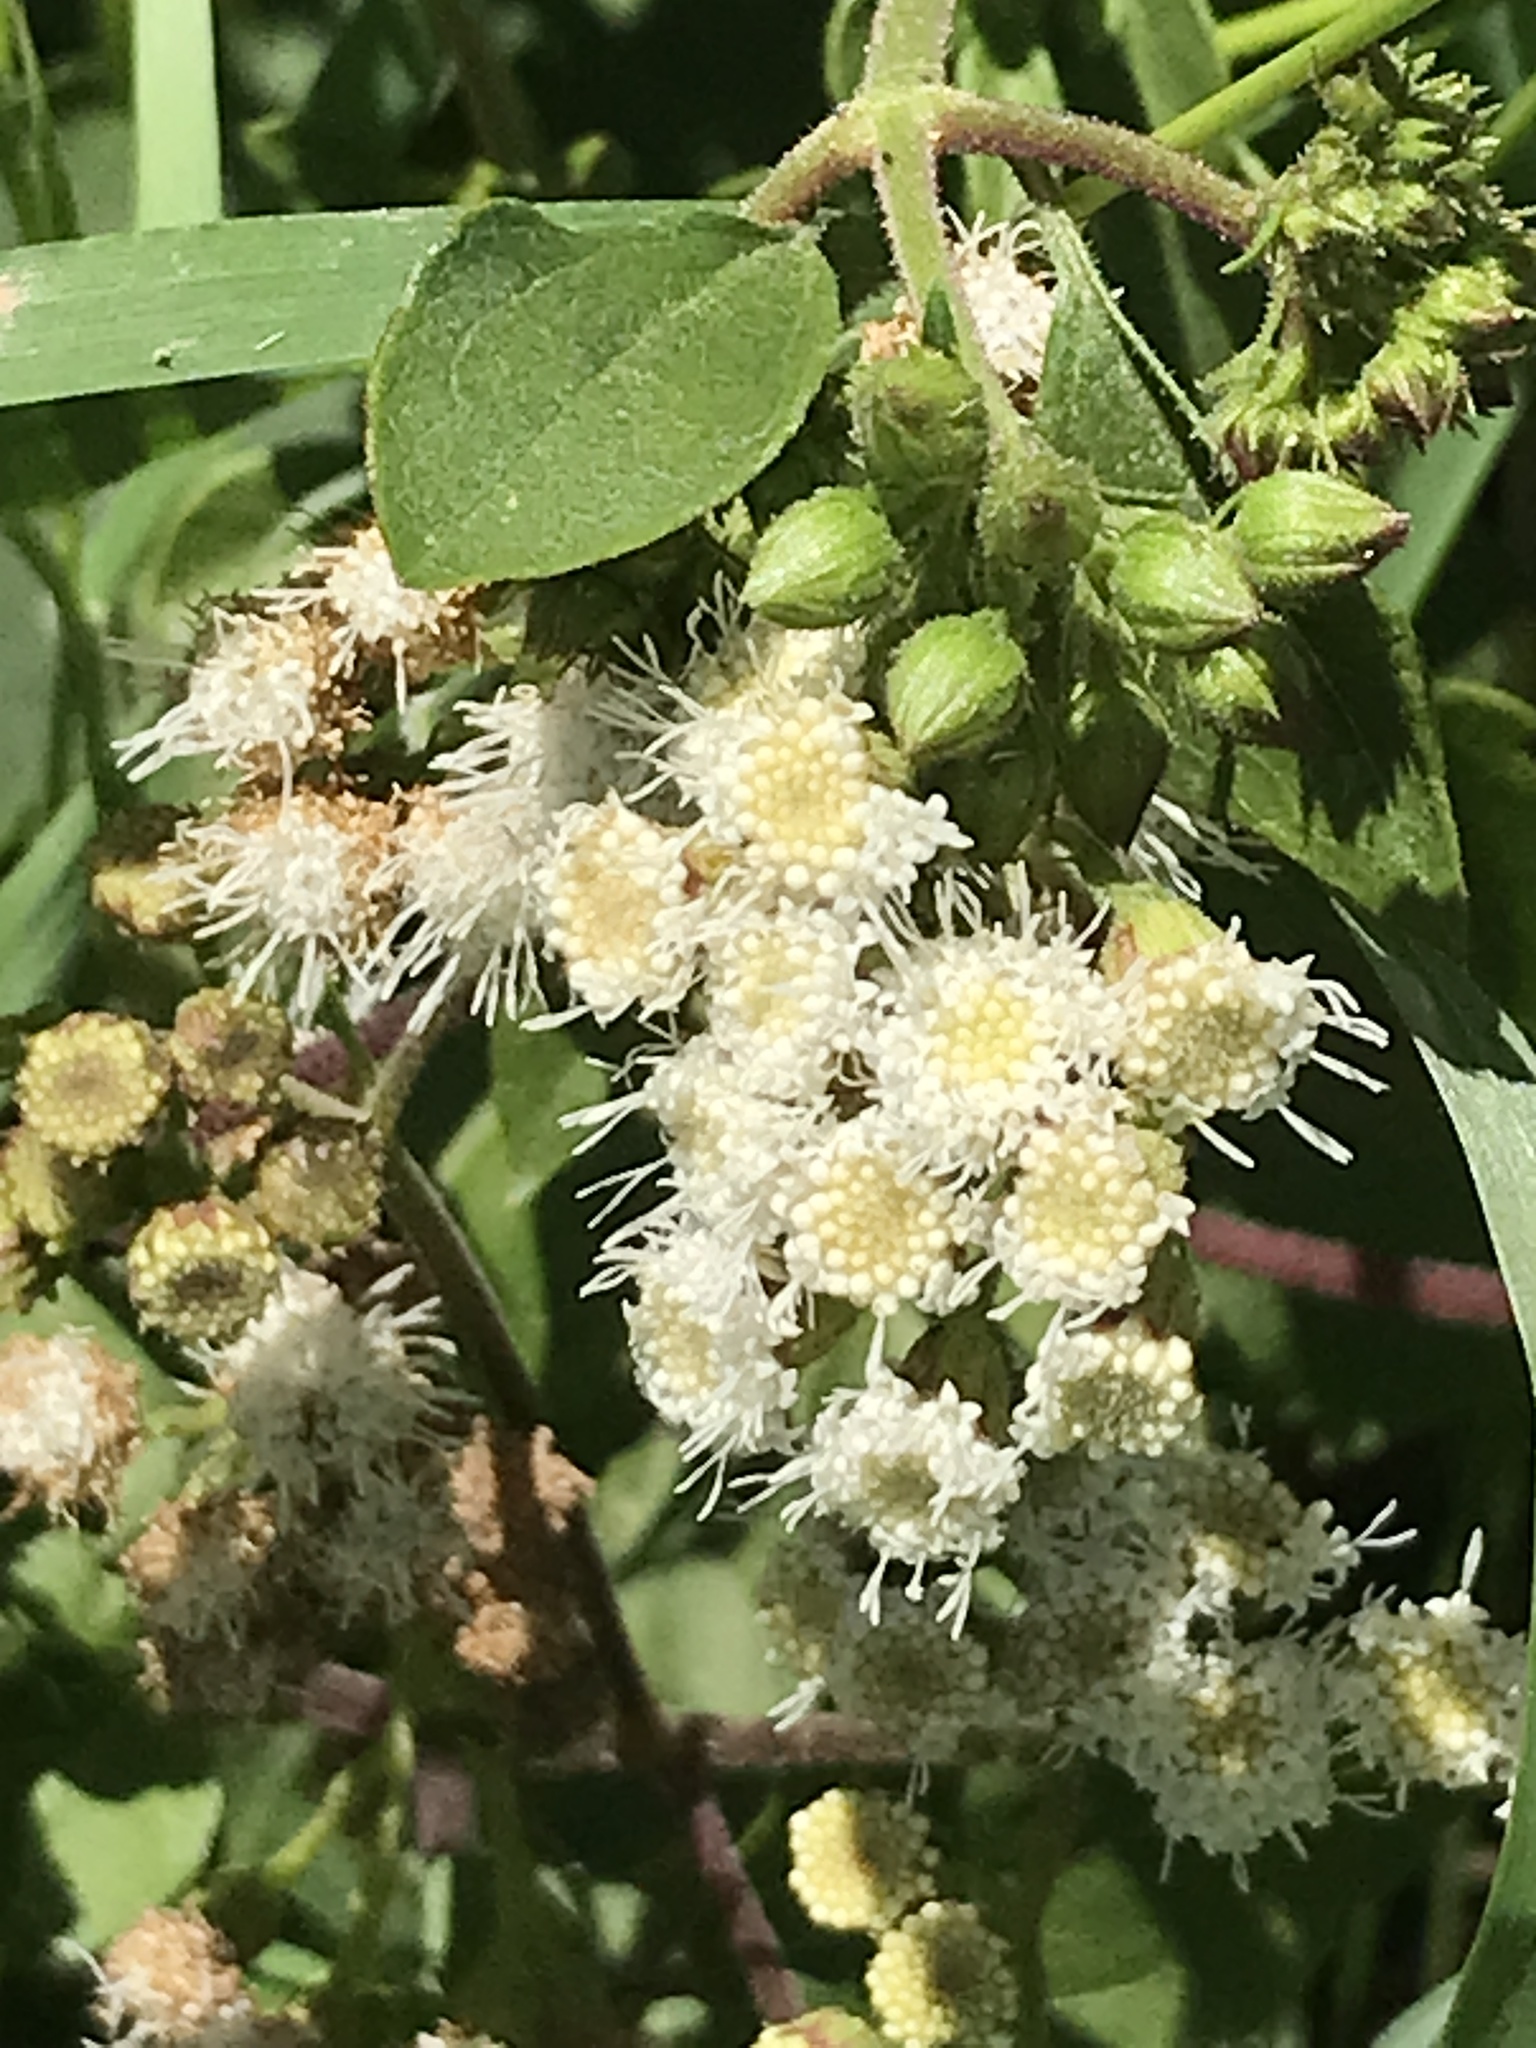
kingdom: Plantae
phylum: Tracheophyta
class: Magnoliopsida
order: Asterales
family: Asteraceae
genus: Ageratina
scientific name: Ageratina adenophora
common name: Sticky snakeroot
